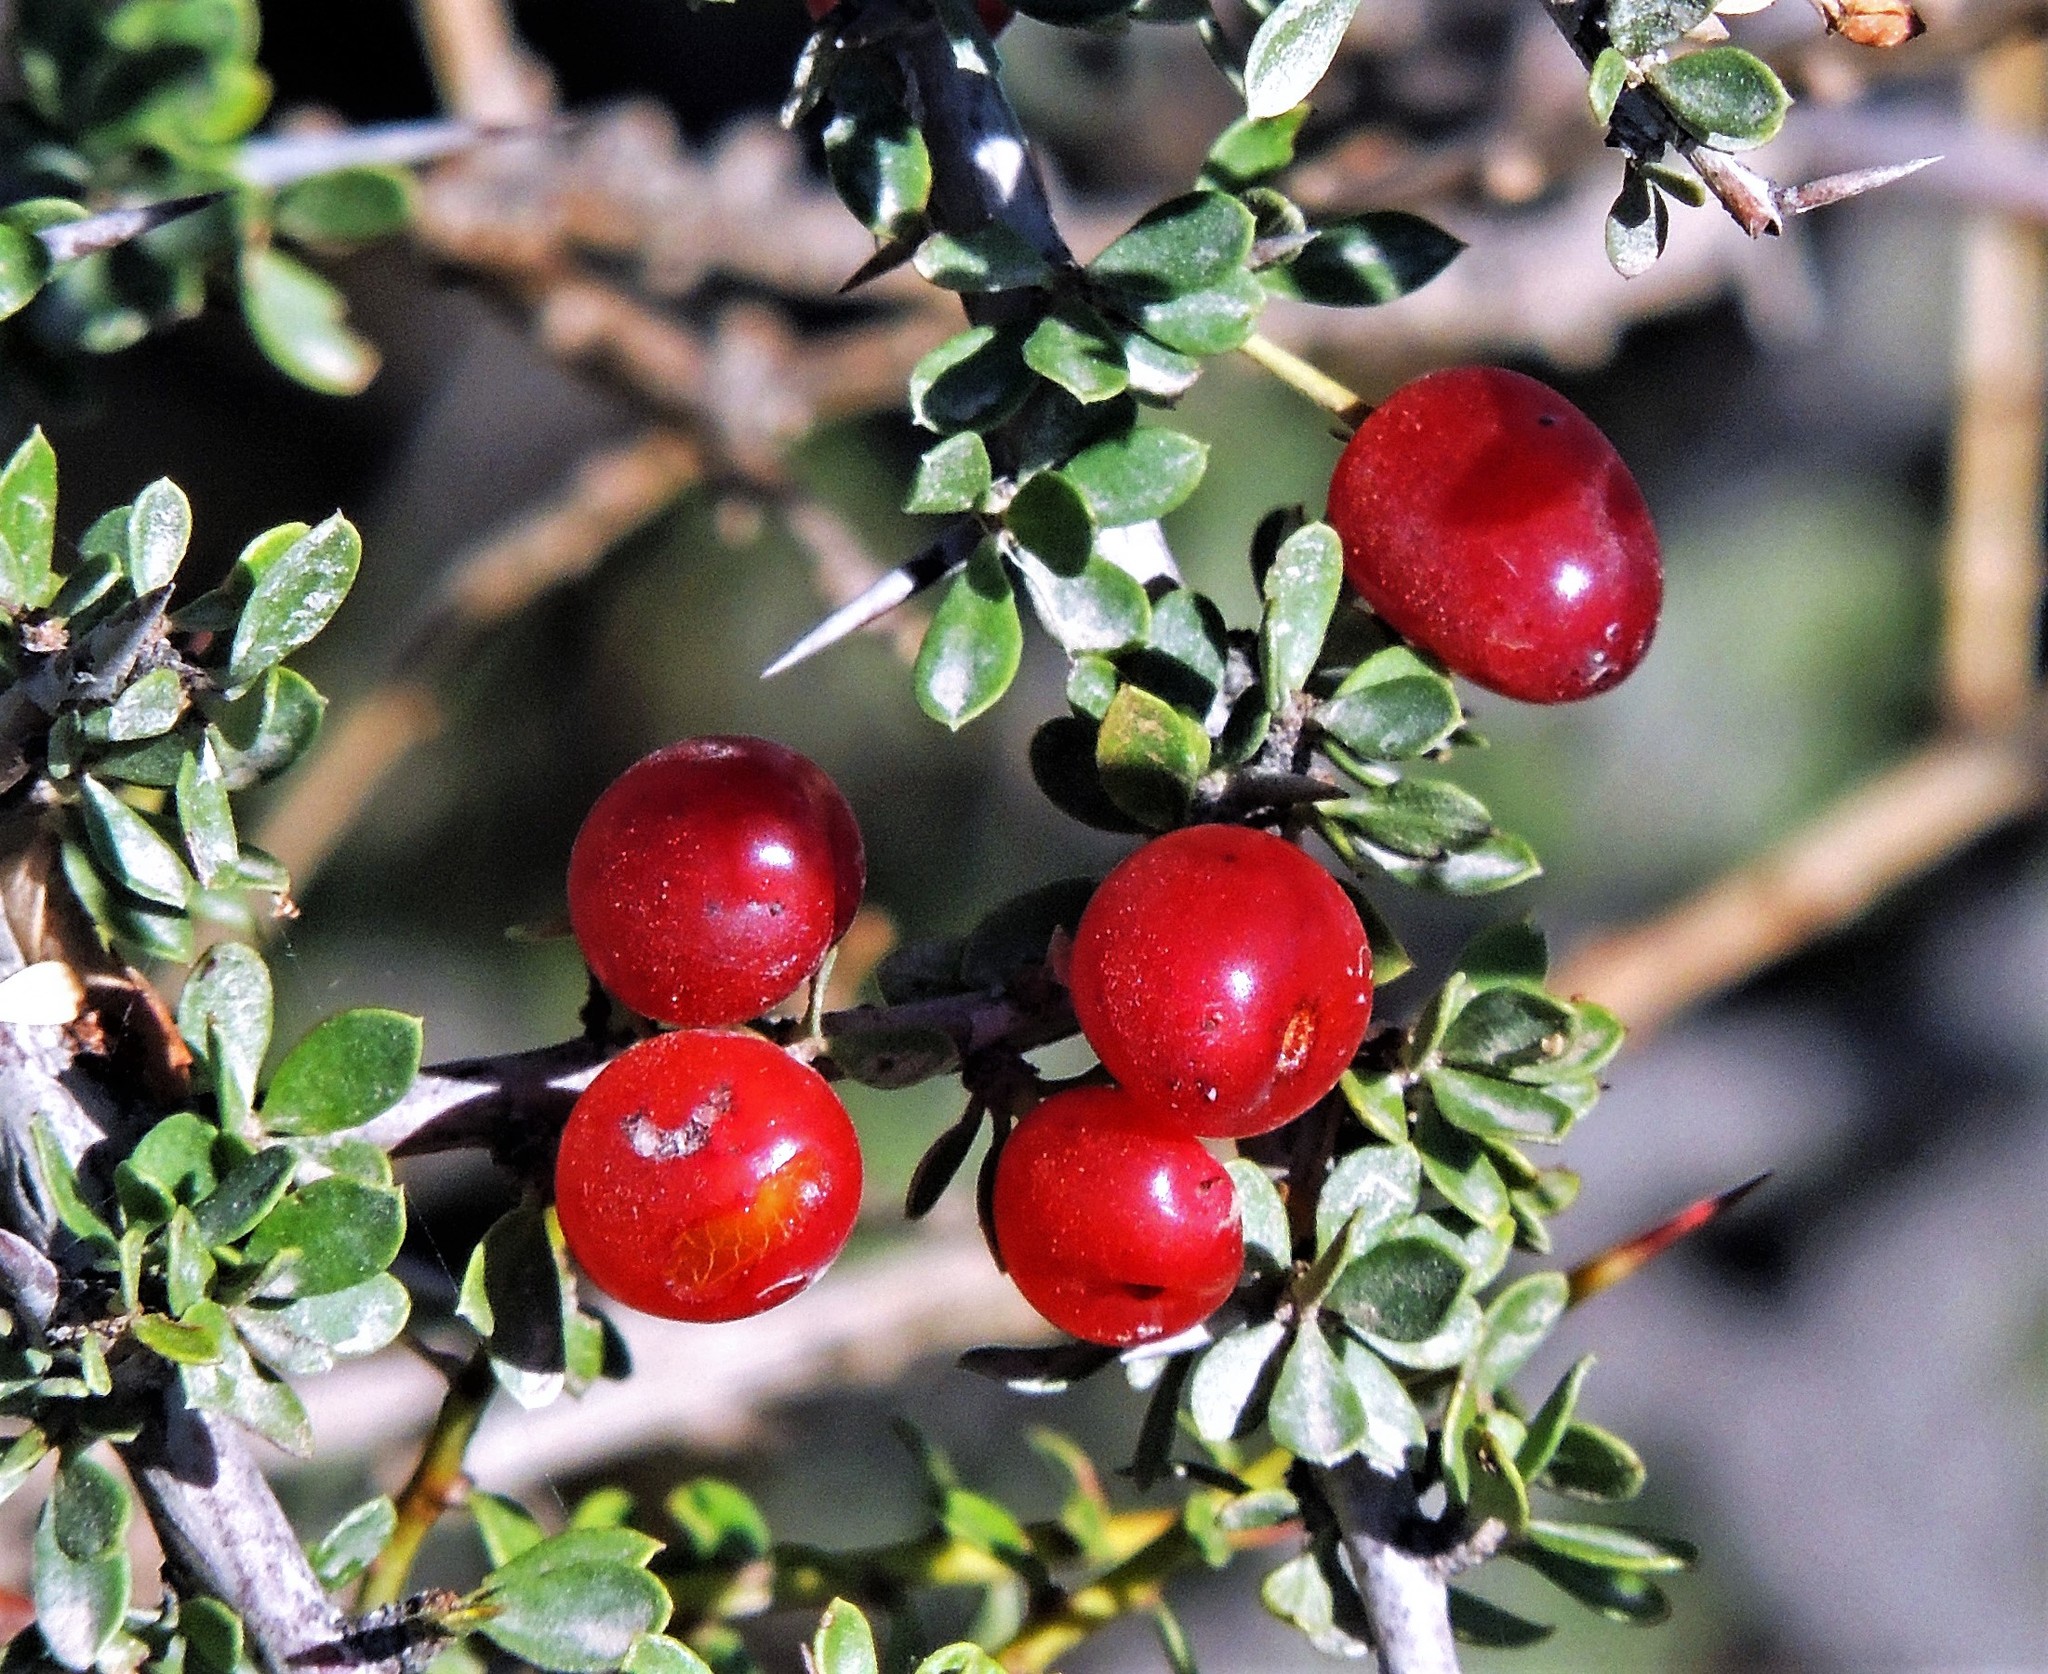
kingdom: Plantae
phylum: Tracheophyta
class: Magnoliopsida
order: Rosales
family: Rhamnaceae
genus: Condalia
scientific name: Condalia microphylla
